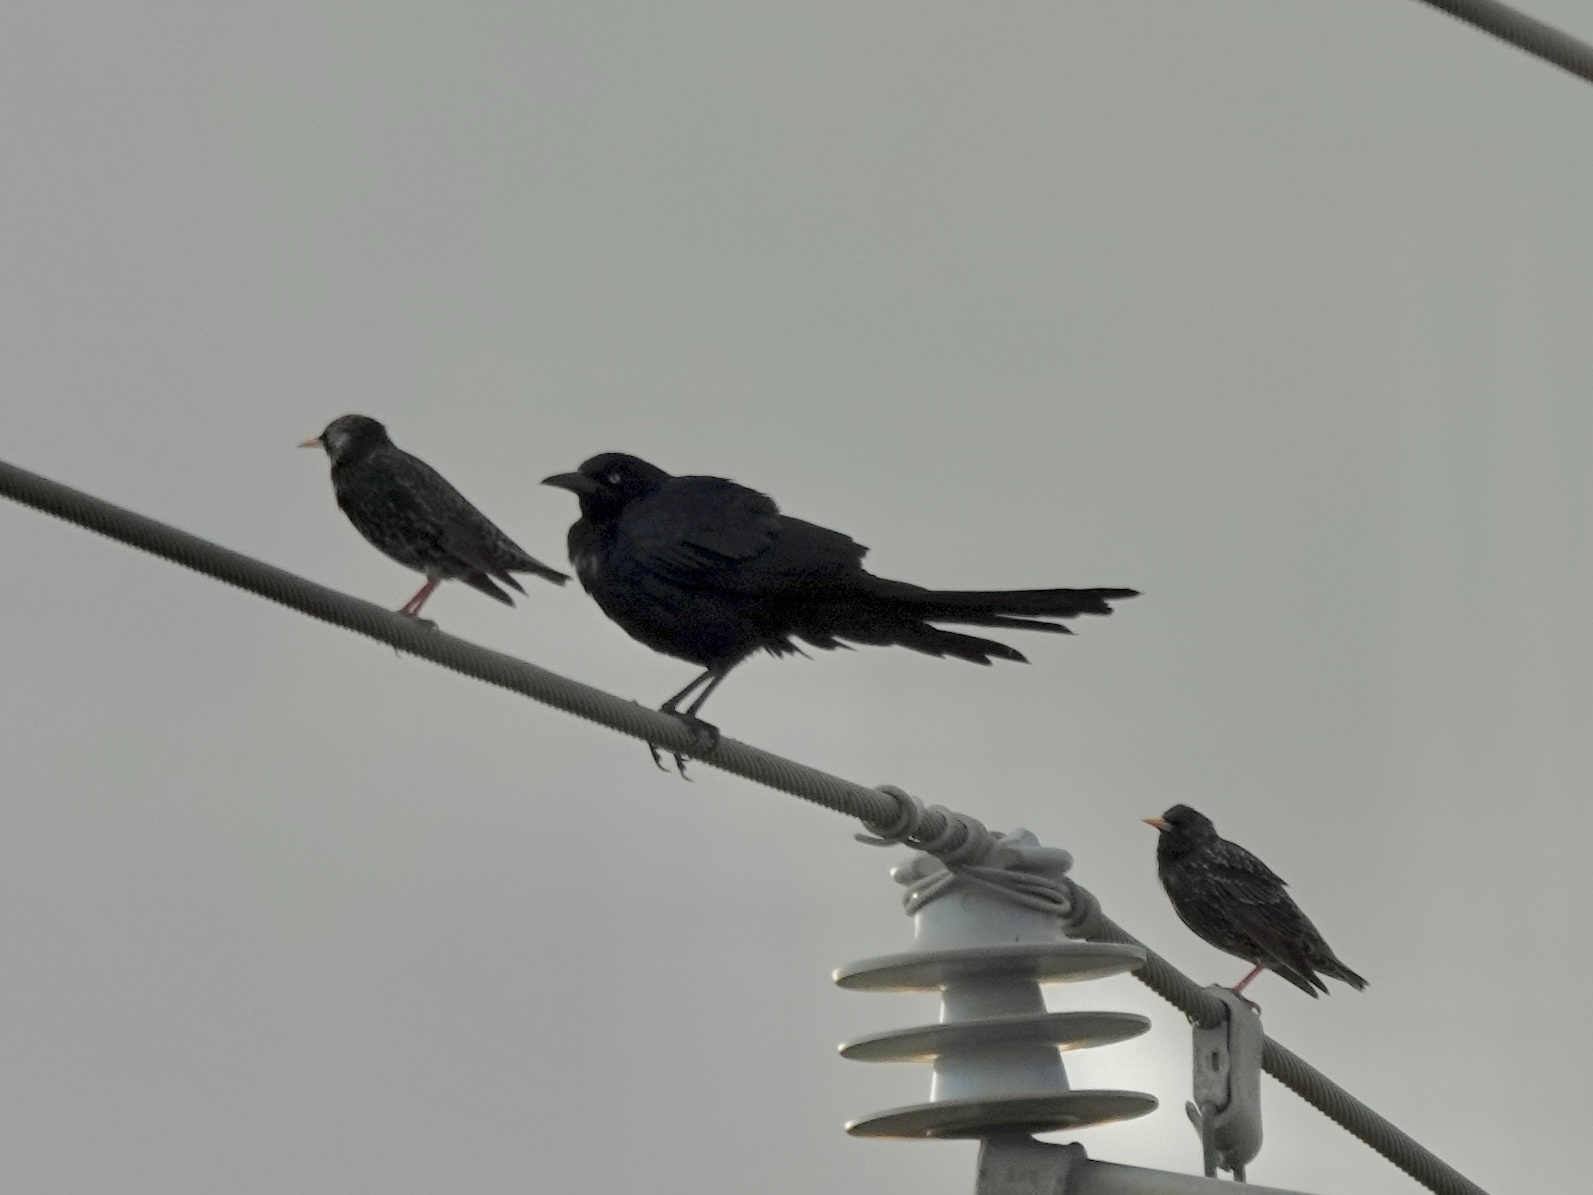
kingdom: Animalia
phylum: Chordata
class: Aves
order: Passeriformes
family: Icteridae
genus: Quiscalus
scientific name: Quiscalus mexicanus
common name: Great-tailed grackle
